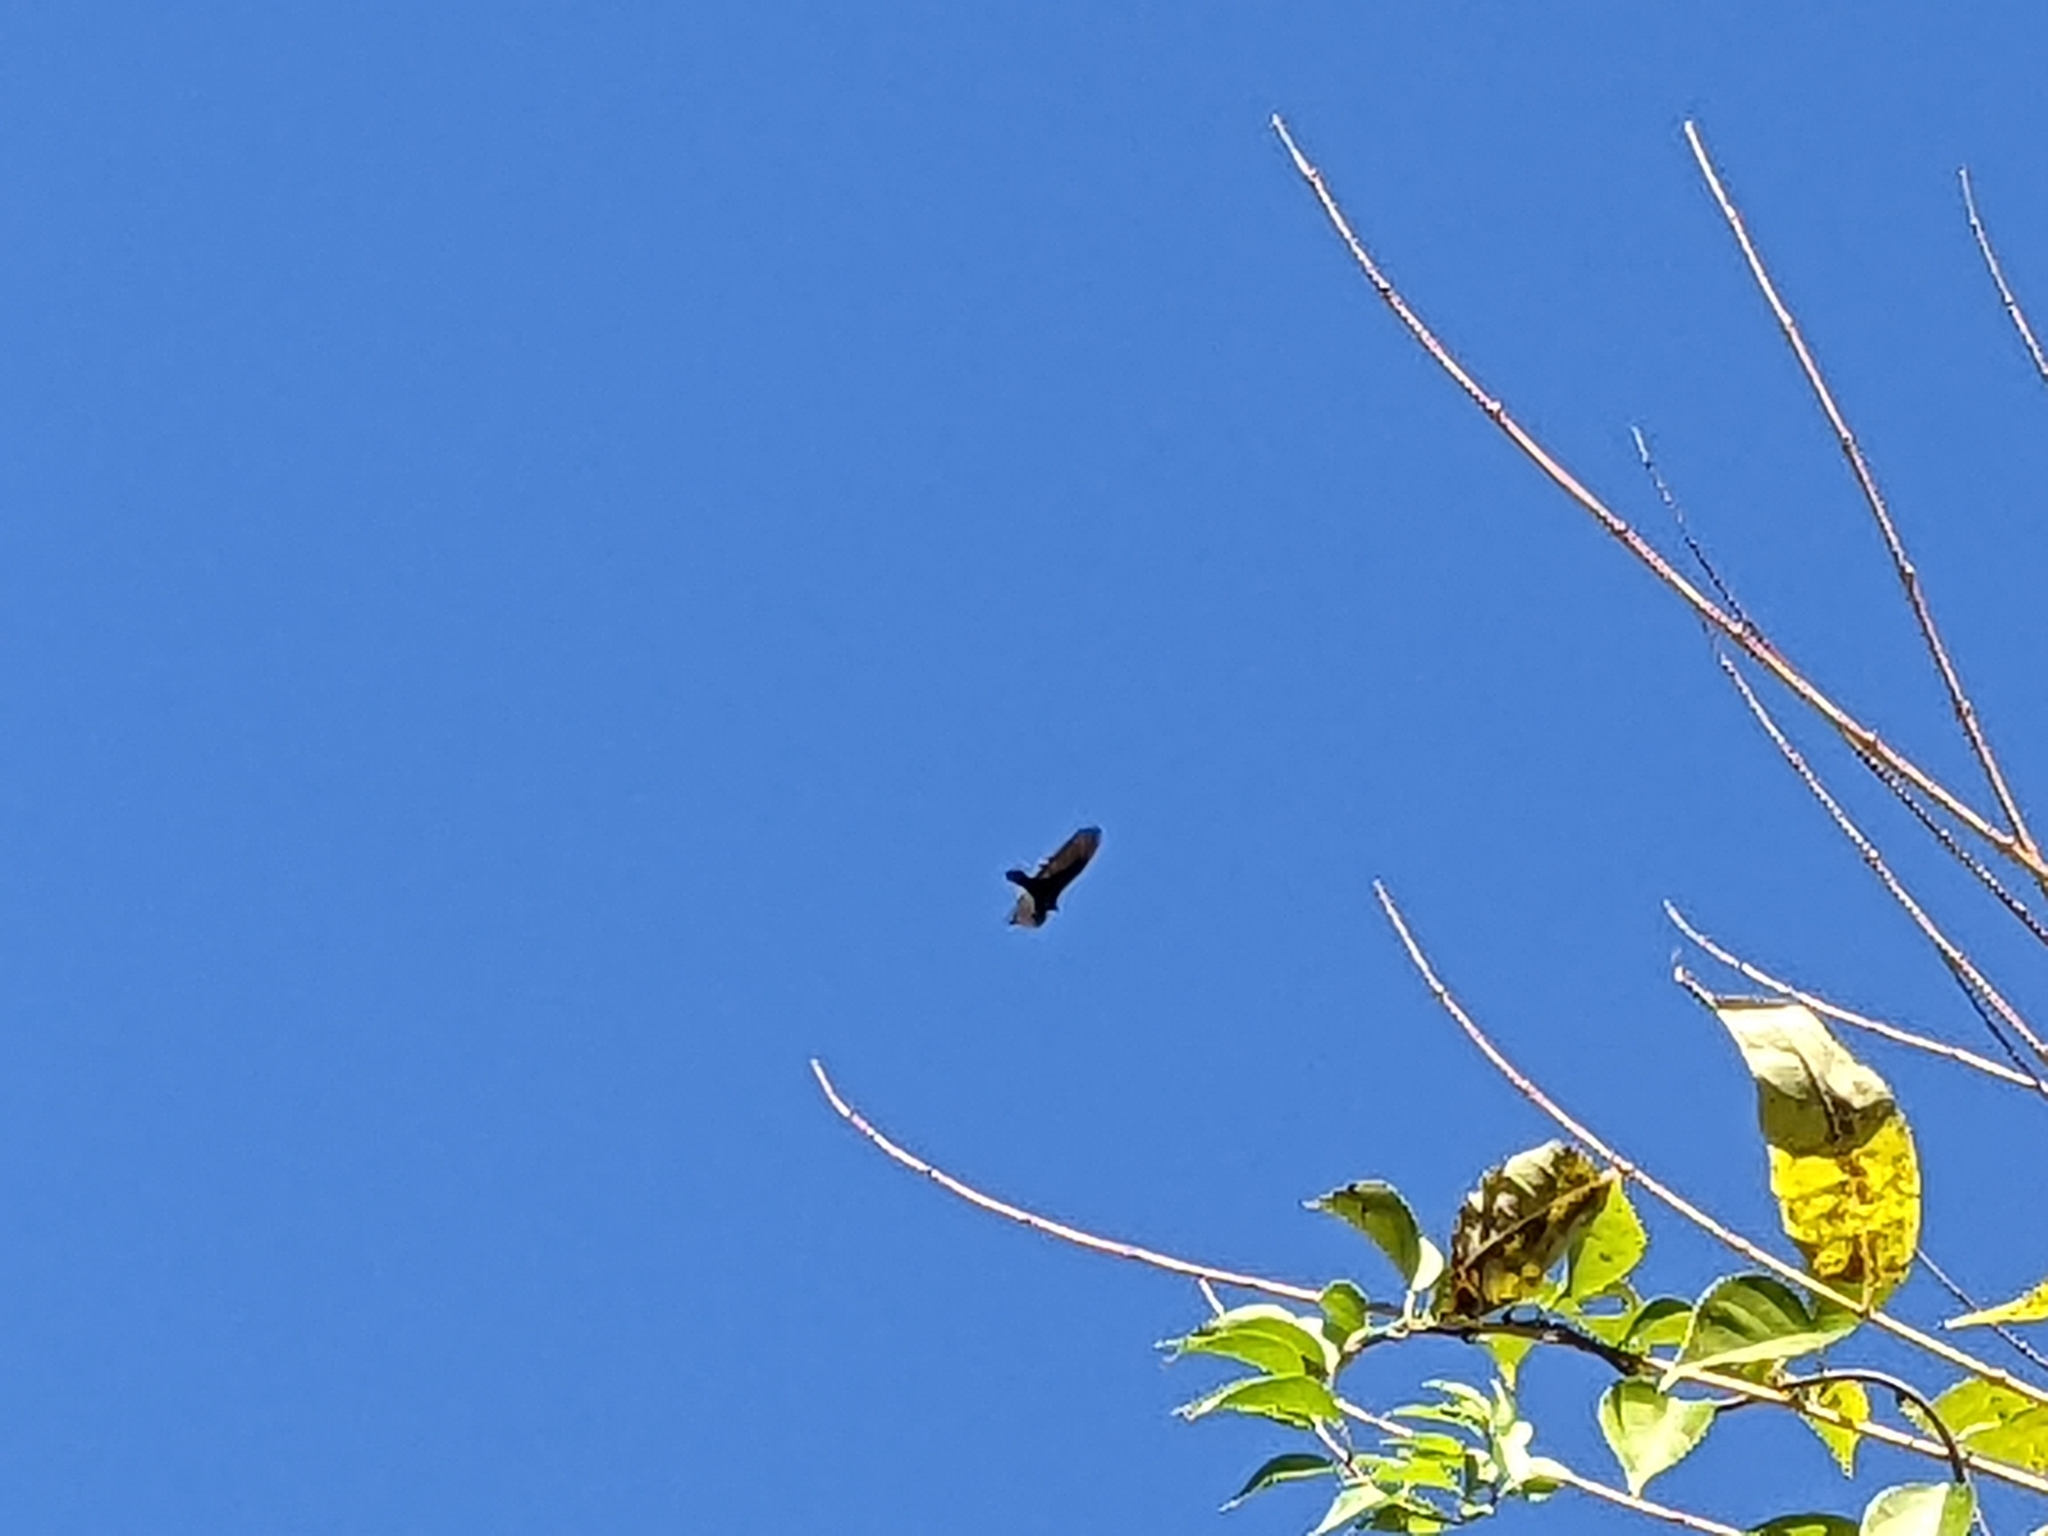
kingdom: Animalia
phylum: Chordata
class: Aves
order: Accipitriformes
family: Cathartidae
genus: Cathartes
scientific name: Cathartes aura
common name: Turkey vulture
